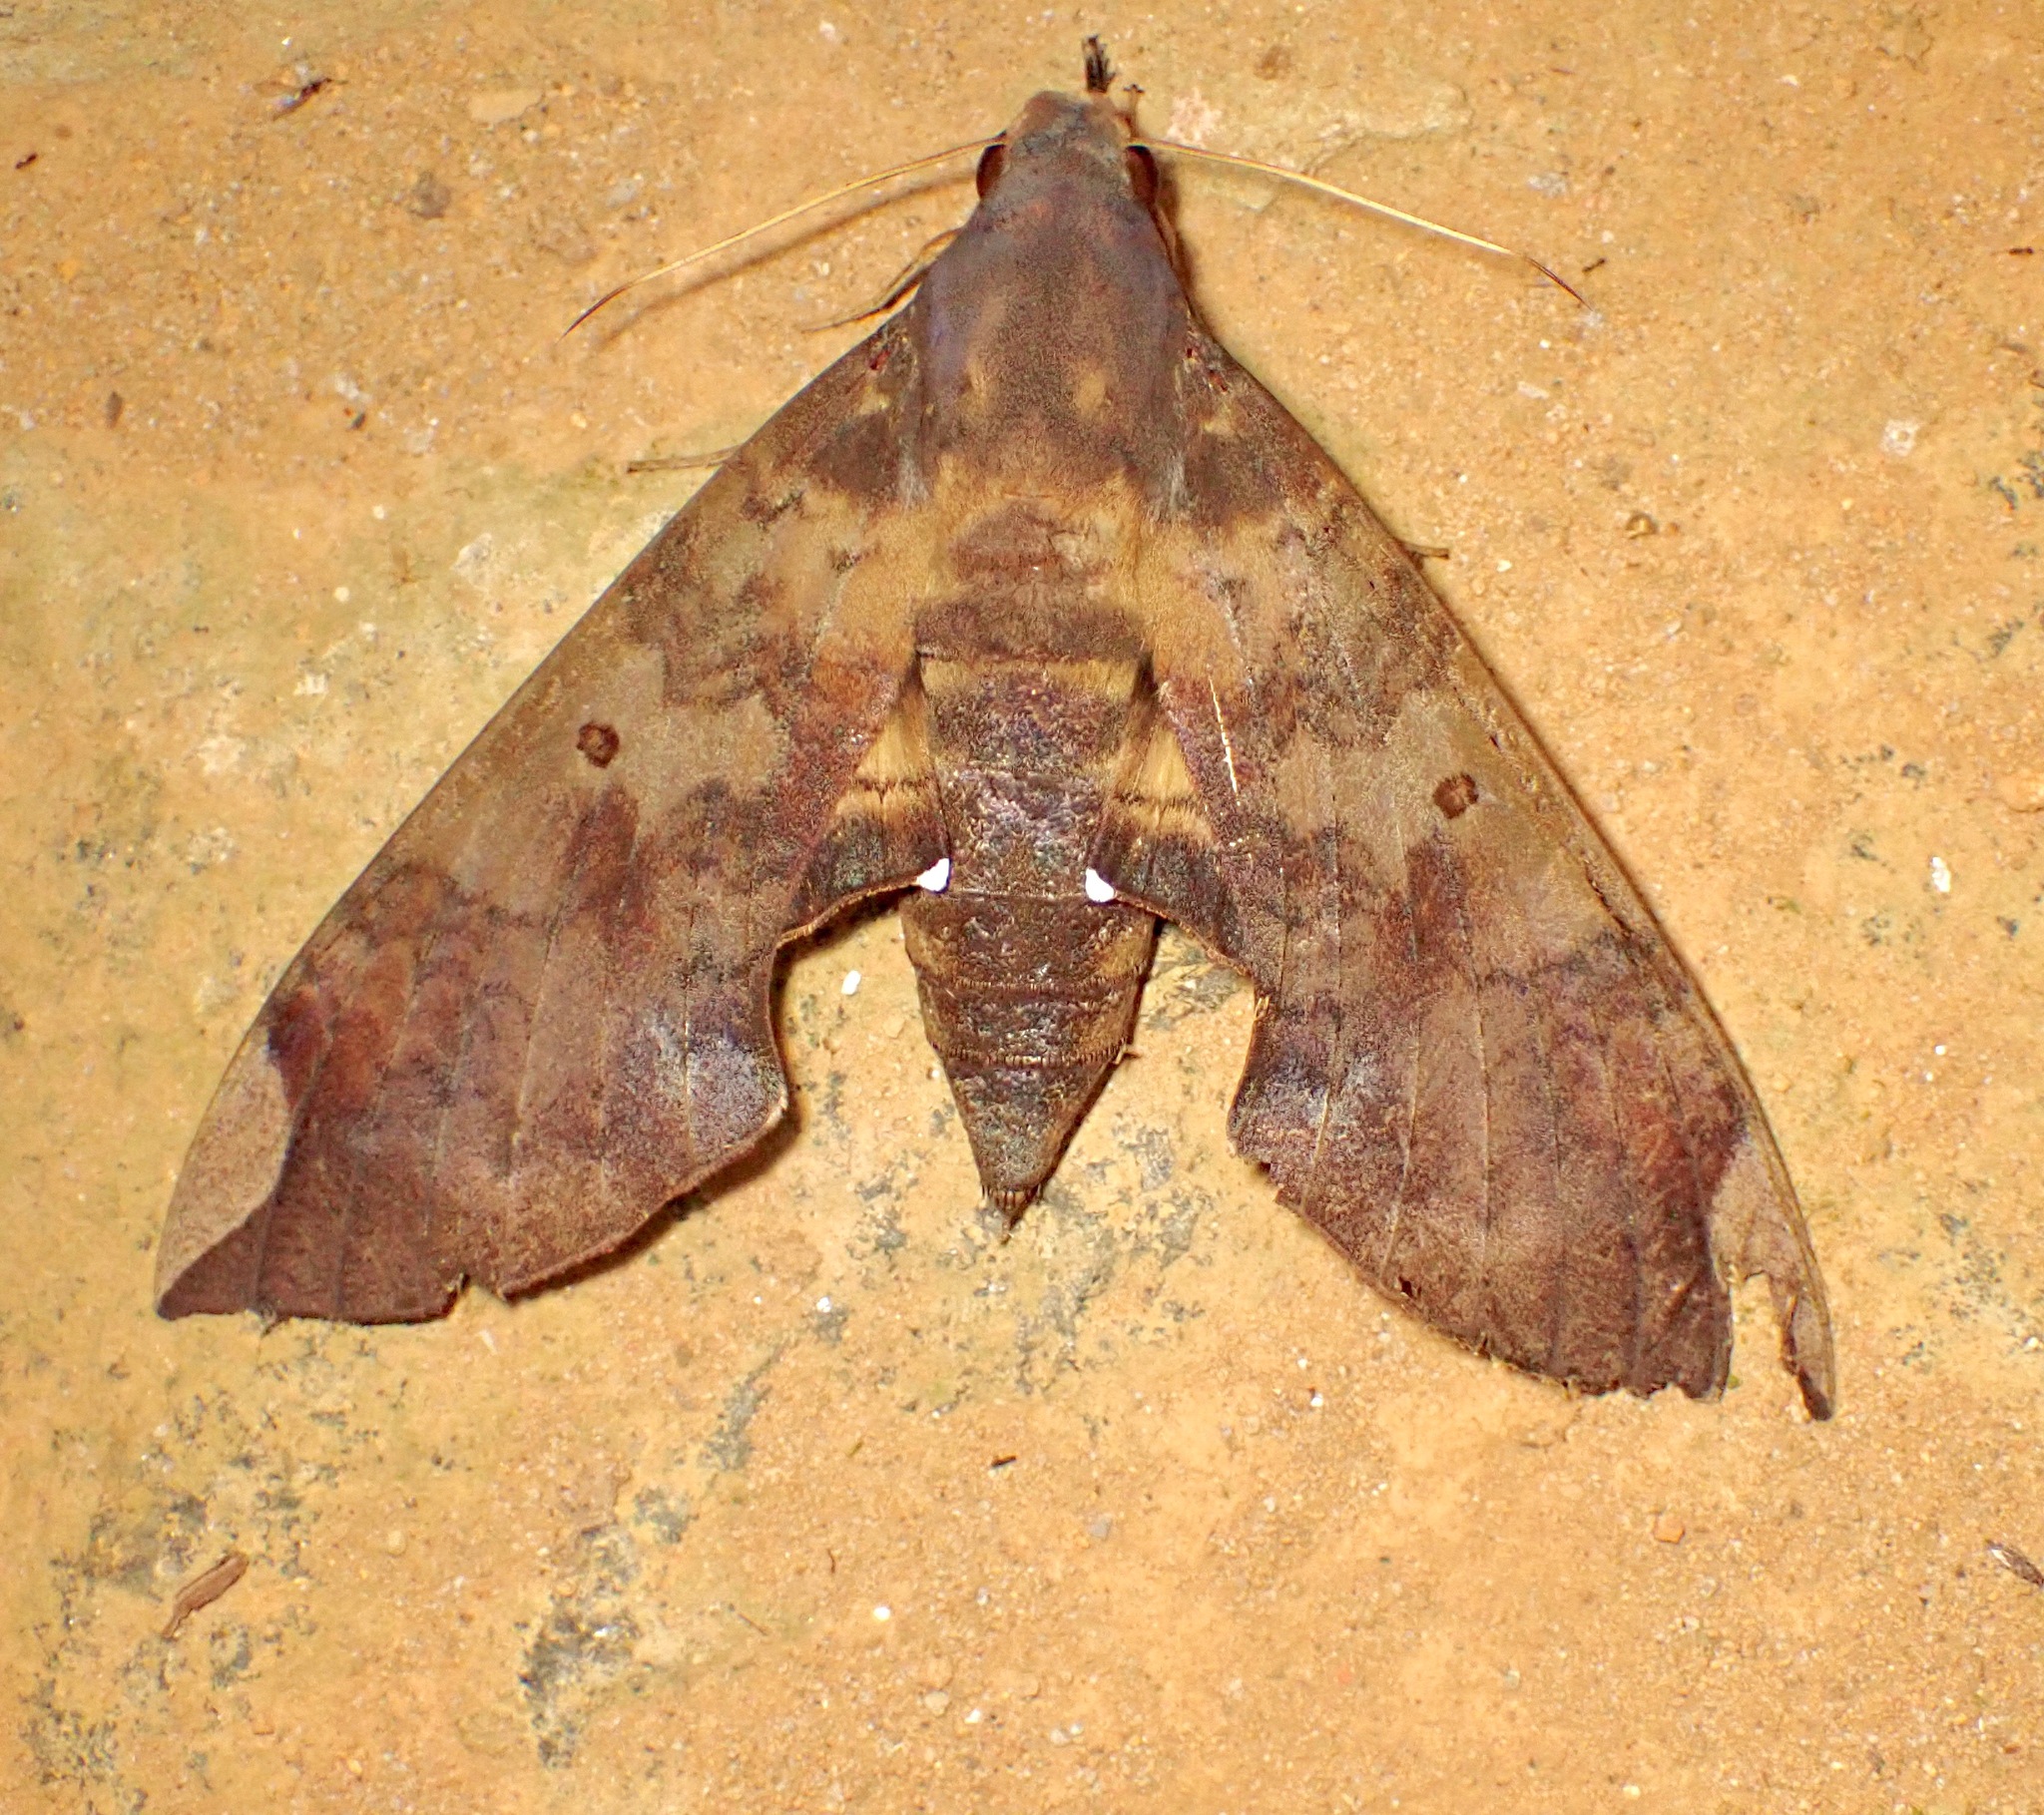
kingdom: Animalia
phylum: Arthropoda
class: Insecta
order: Lepidoptera
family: Sphingidae
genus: Pachylia
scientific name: Pachylia ficus
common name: Fig sphinx
